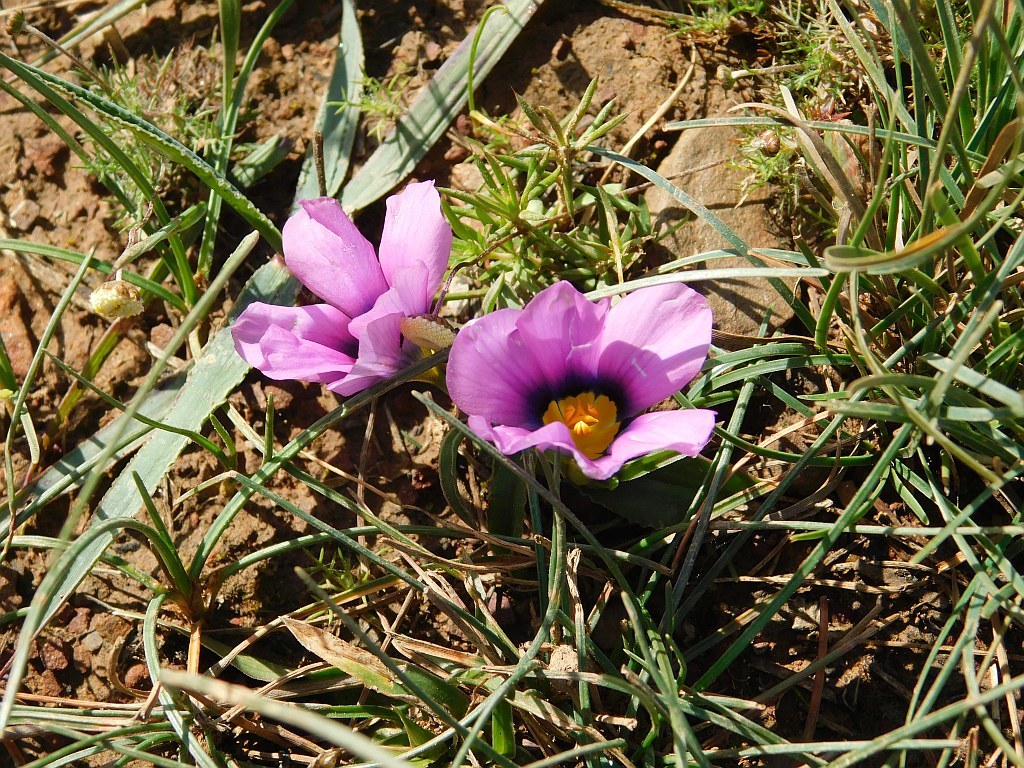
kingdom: Plantae
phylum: Tracheophyta
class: Liliopsida
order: Asparagales
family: Iridaceae
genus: Moraea
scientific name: Moraea barnardiella
